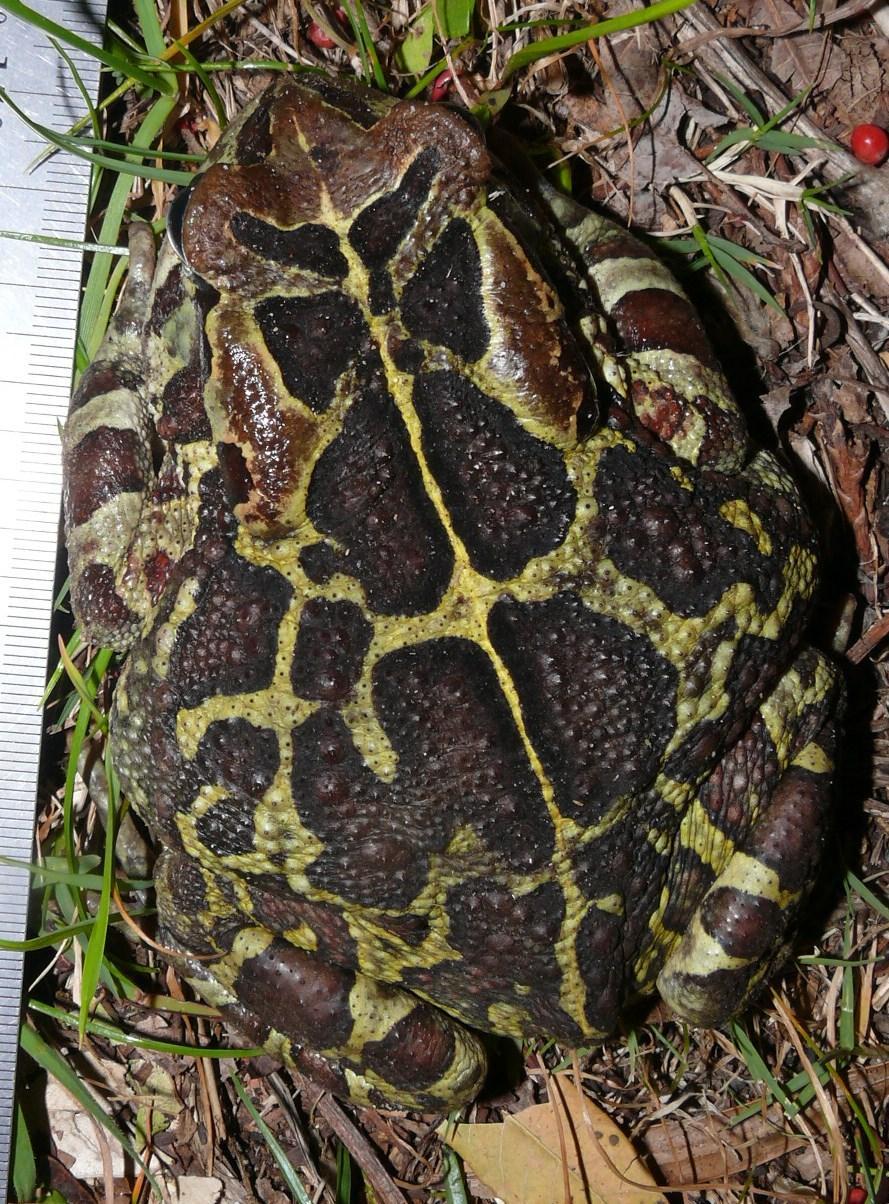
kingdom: Animalia
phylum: Chordata
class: Amphibia
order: Anura
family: Bufonidae
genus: Sclerophrys
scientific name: Sclerophrys pantherina
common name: Panther toad
